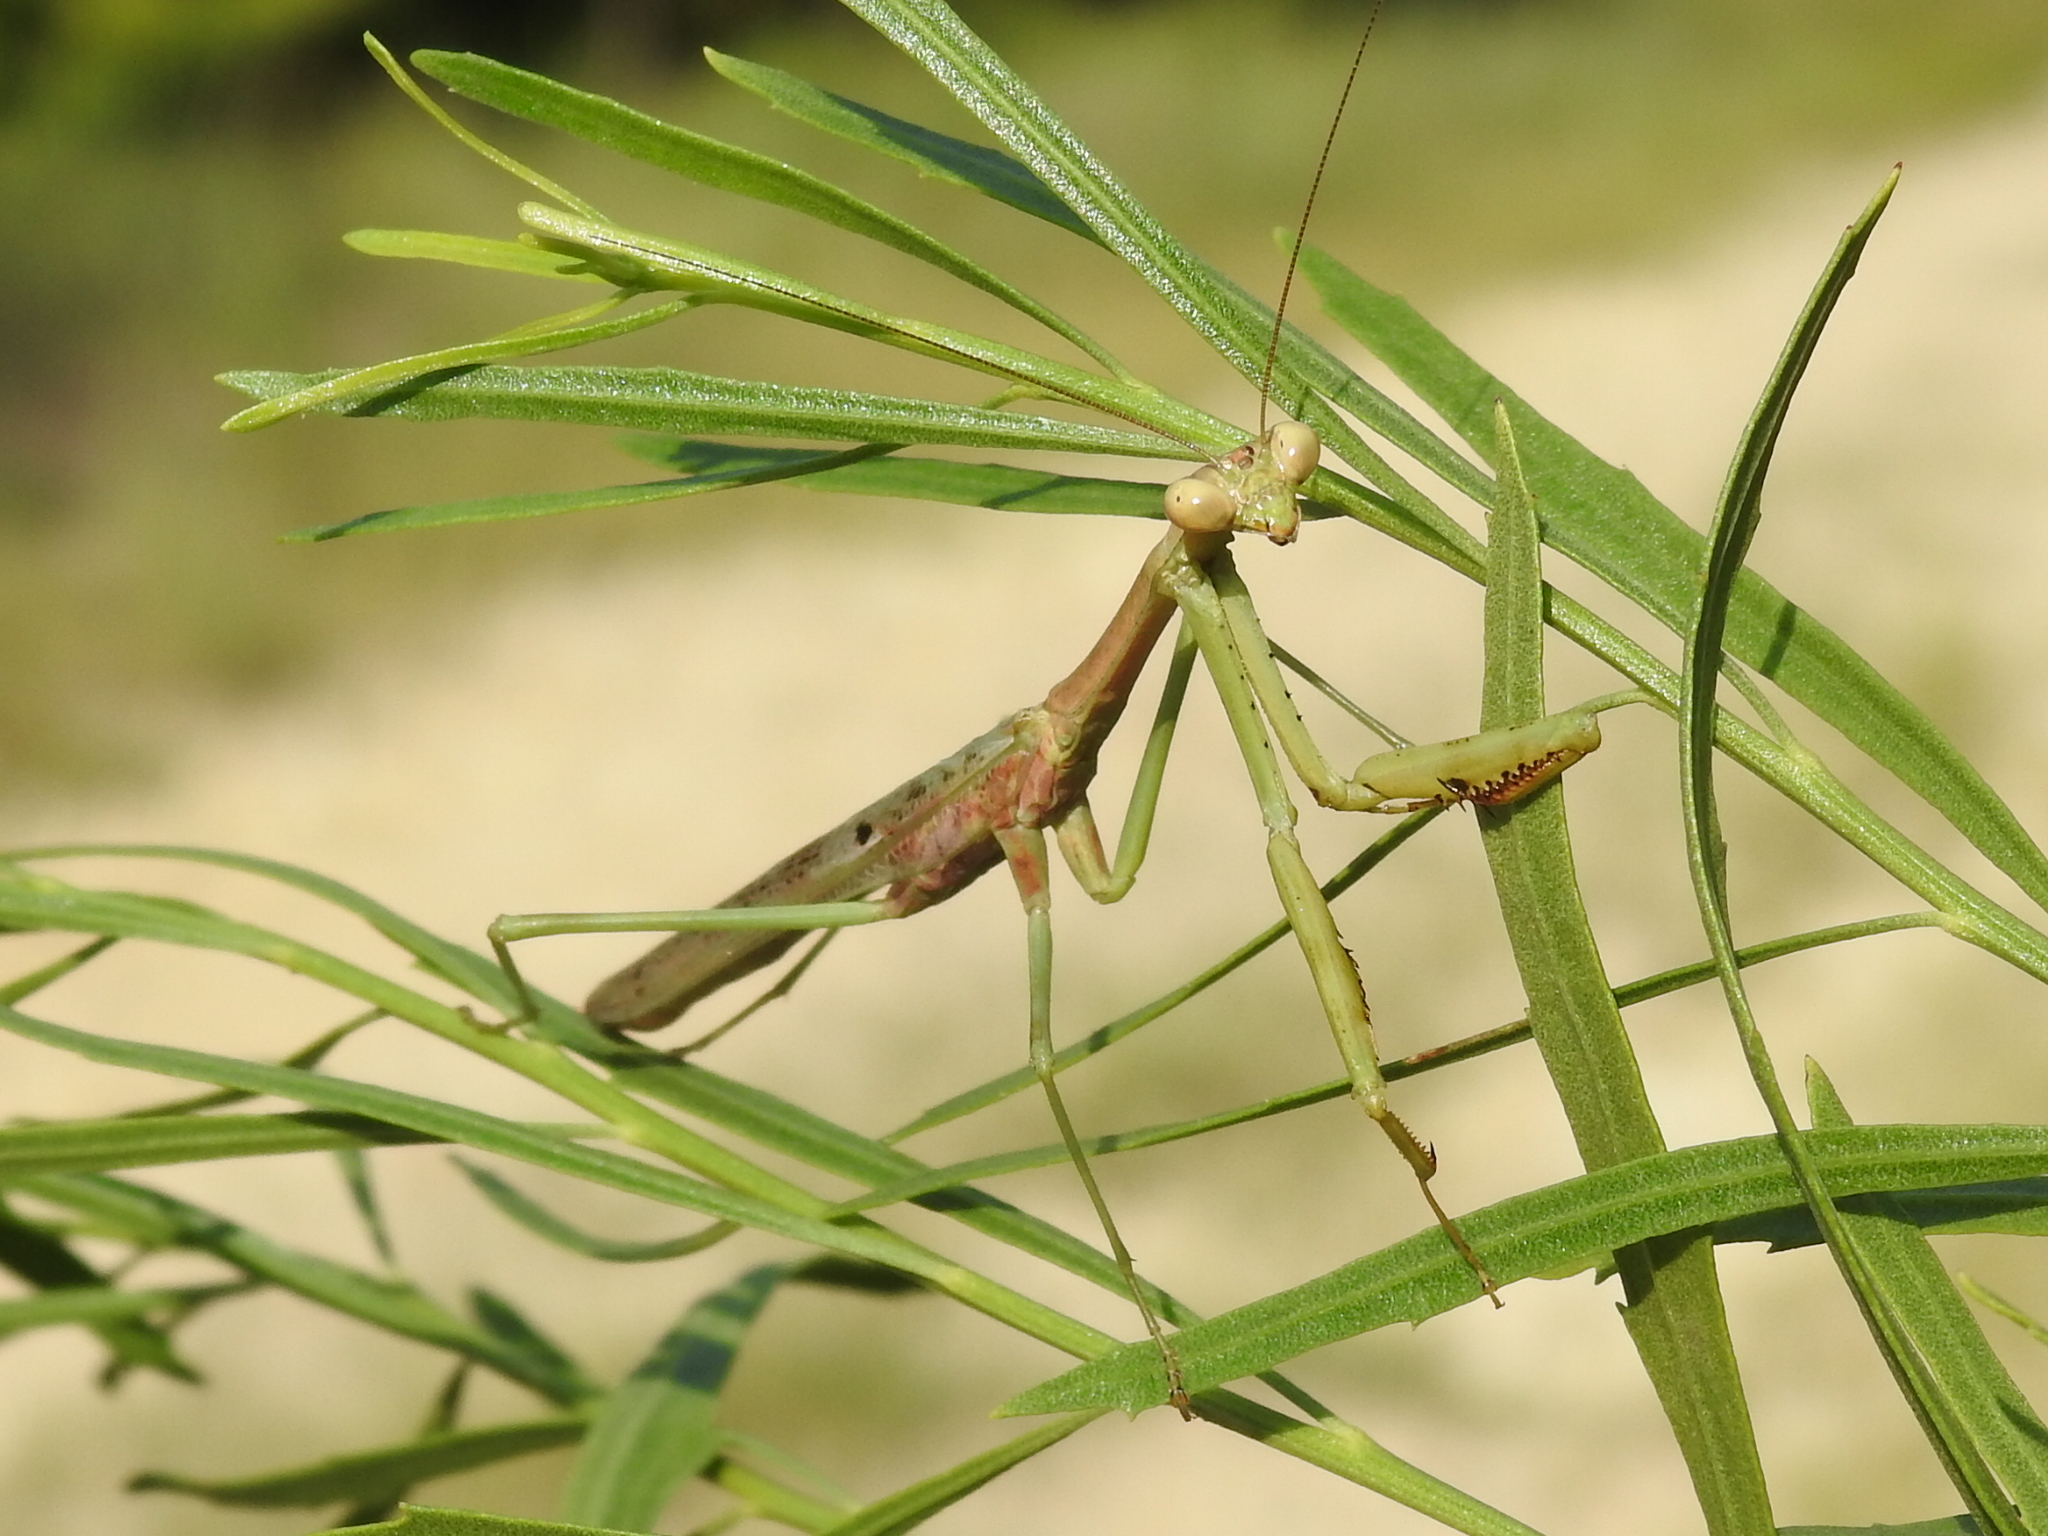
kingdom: Animalia
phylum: Arthropoda
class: Insecta
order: Mantodea
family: Mantidae
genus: Stagmomantis
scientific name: Stagmomantis carolina
